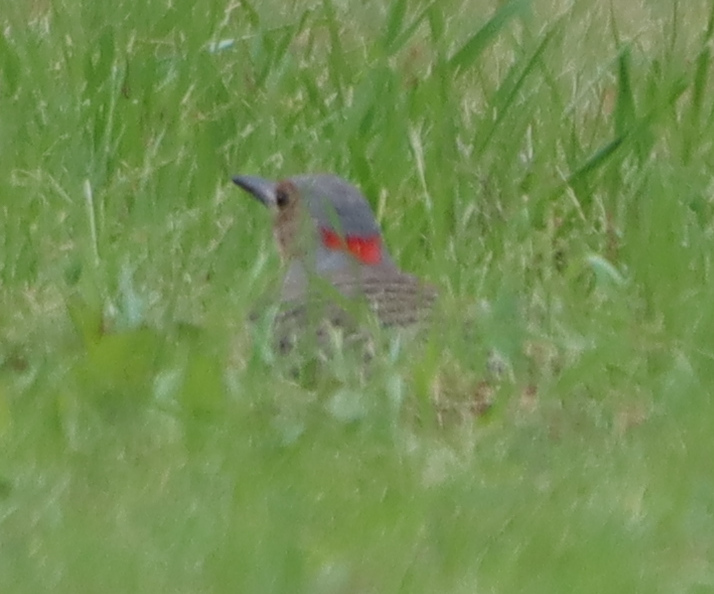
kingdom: Animalia
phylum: Chordata
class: Aves
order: Piciformes
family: Picidae
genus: Colaptes
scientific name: Colaptes auratus
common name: Northern flicker
